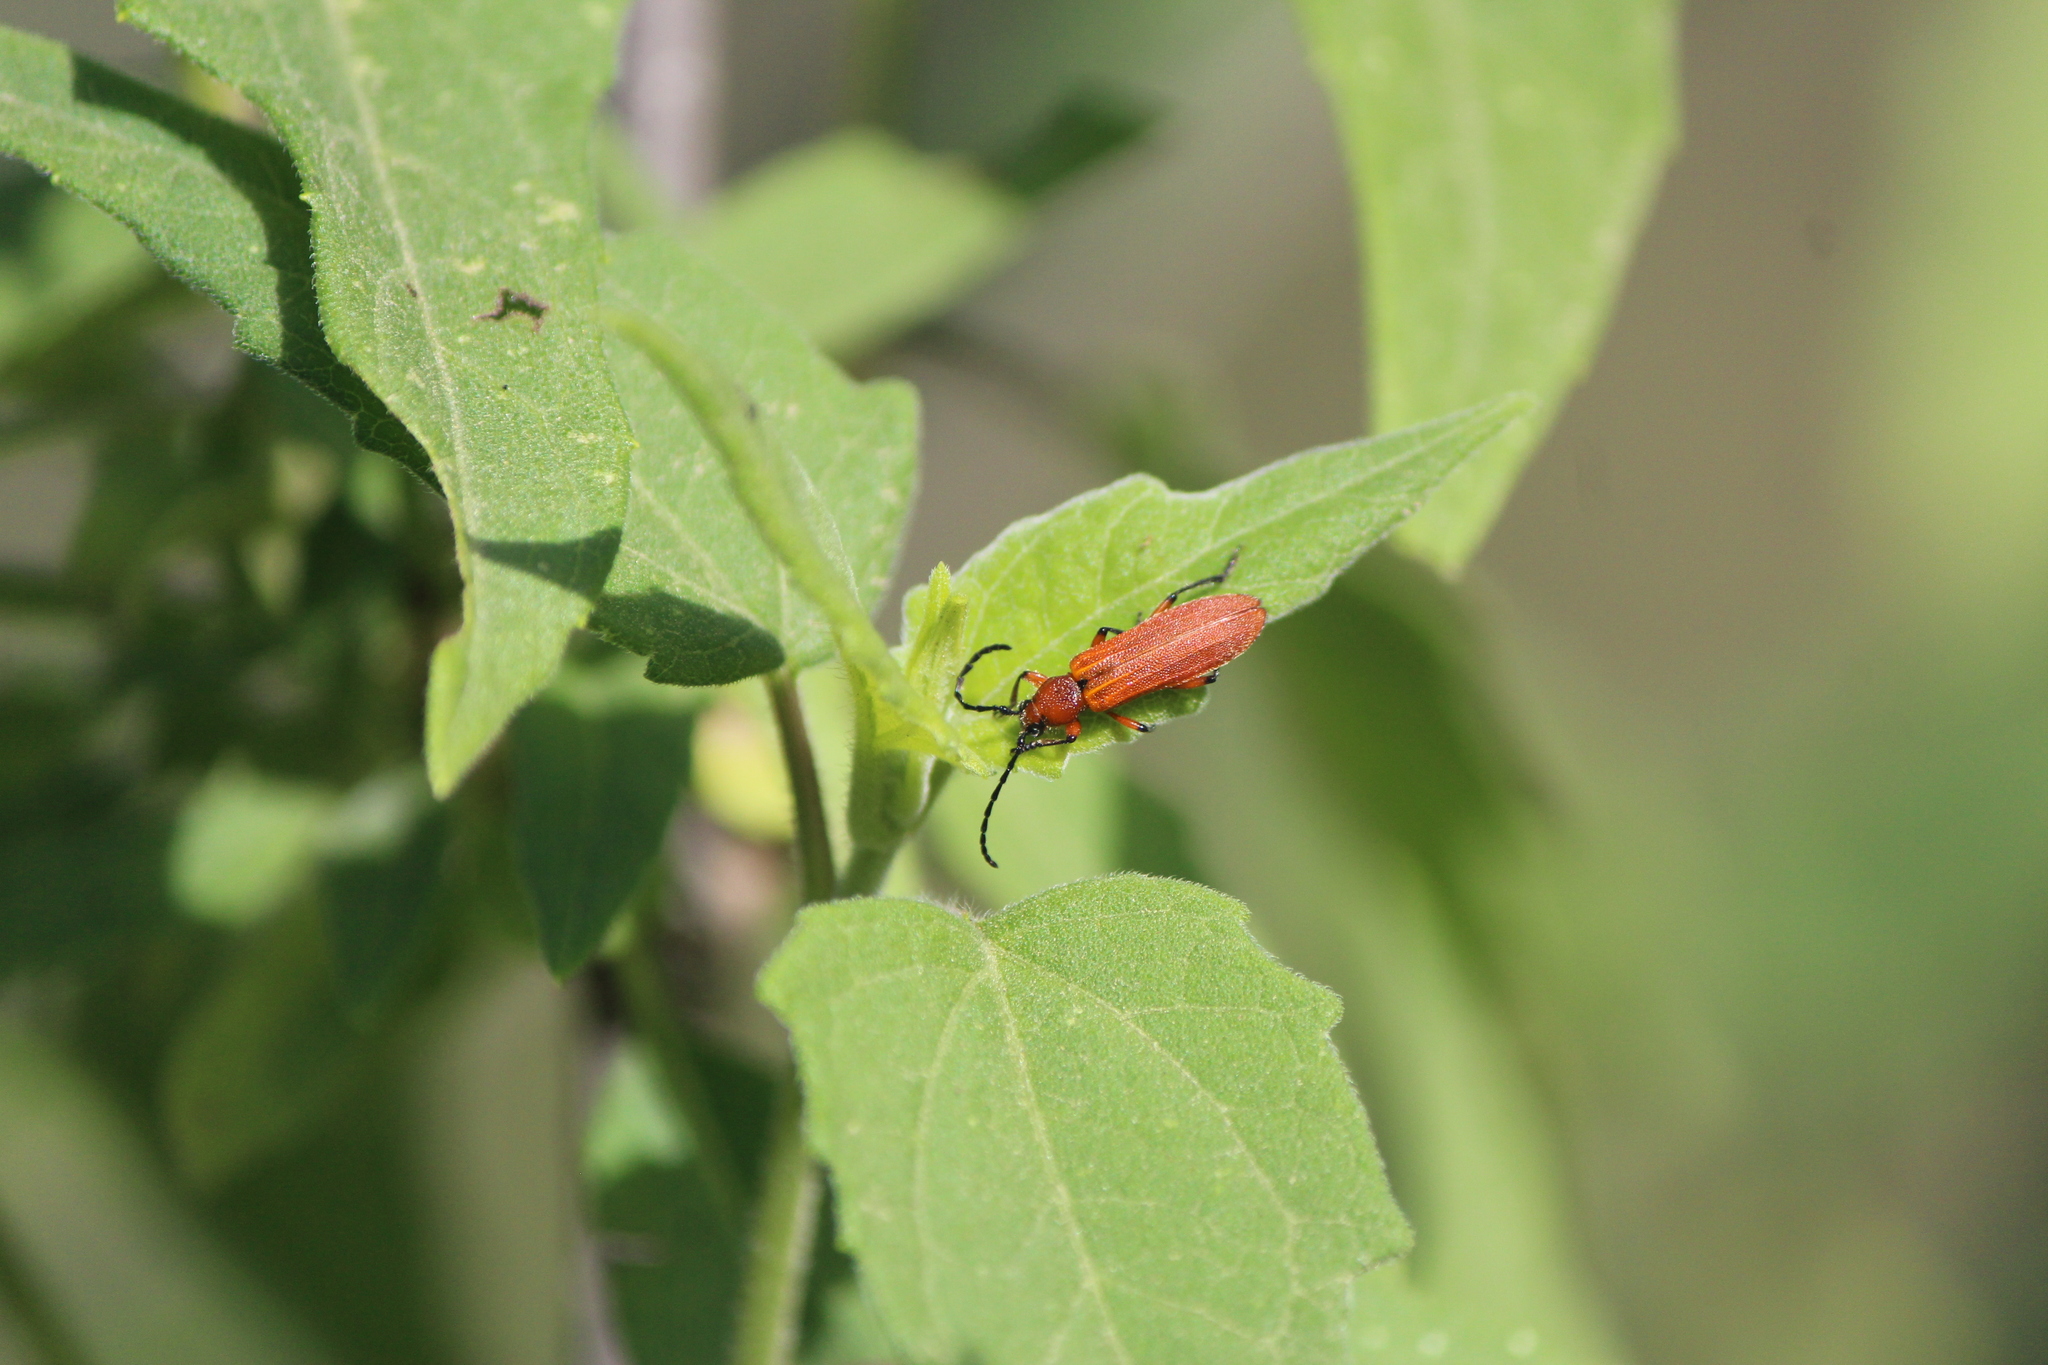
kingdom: Animalia
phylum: Arthropoda
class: Insecta
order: Coleoptera
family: Cerambycidae
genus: Elytroleptus
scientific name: Elytroleptus luteus
